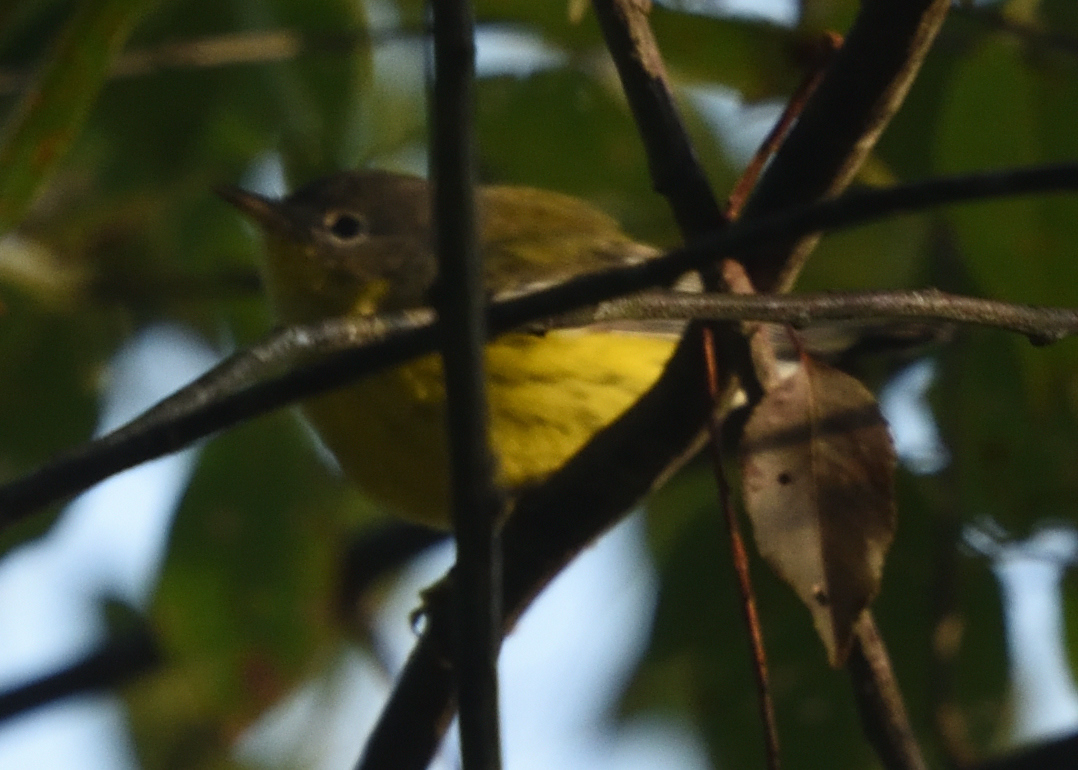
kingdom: Animalia
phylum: Chordata
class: Aves
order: Passeriformes
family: Parulidae
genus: Setophaga
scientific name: Setophaga magnolia
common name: Magnolia warbler
